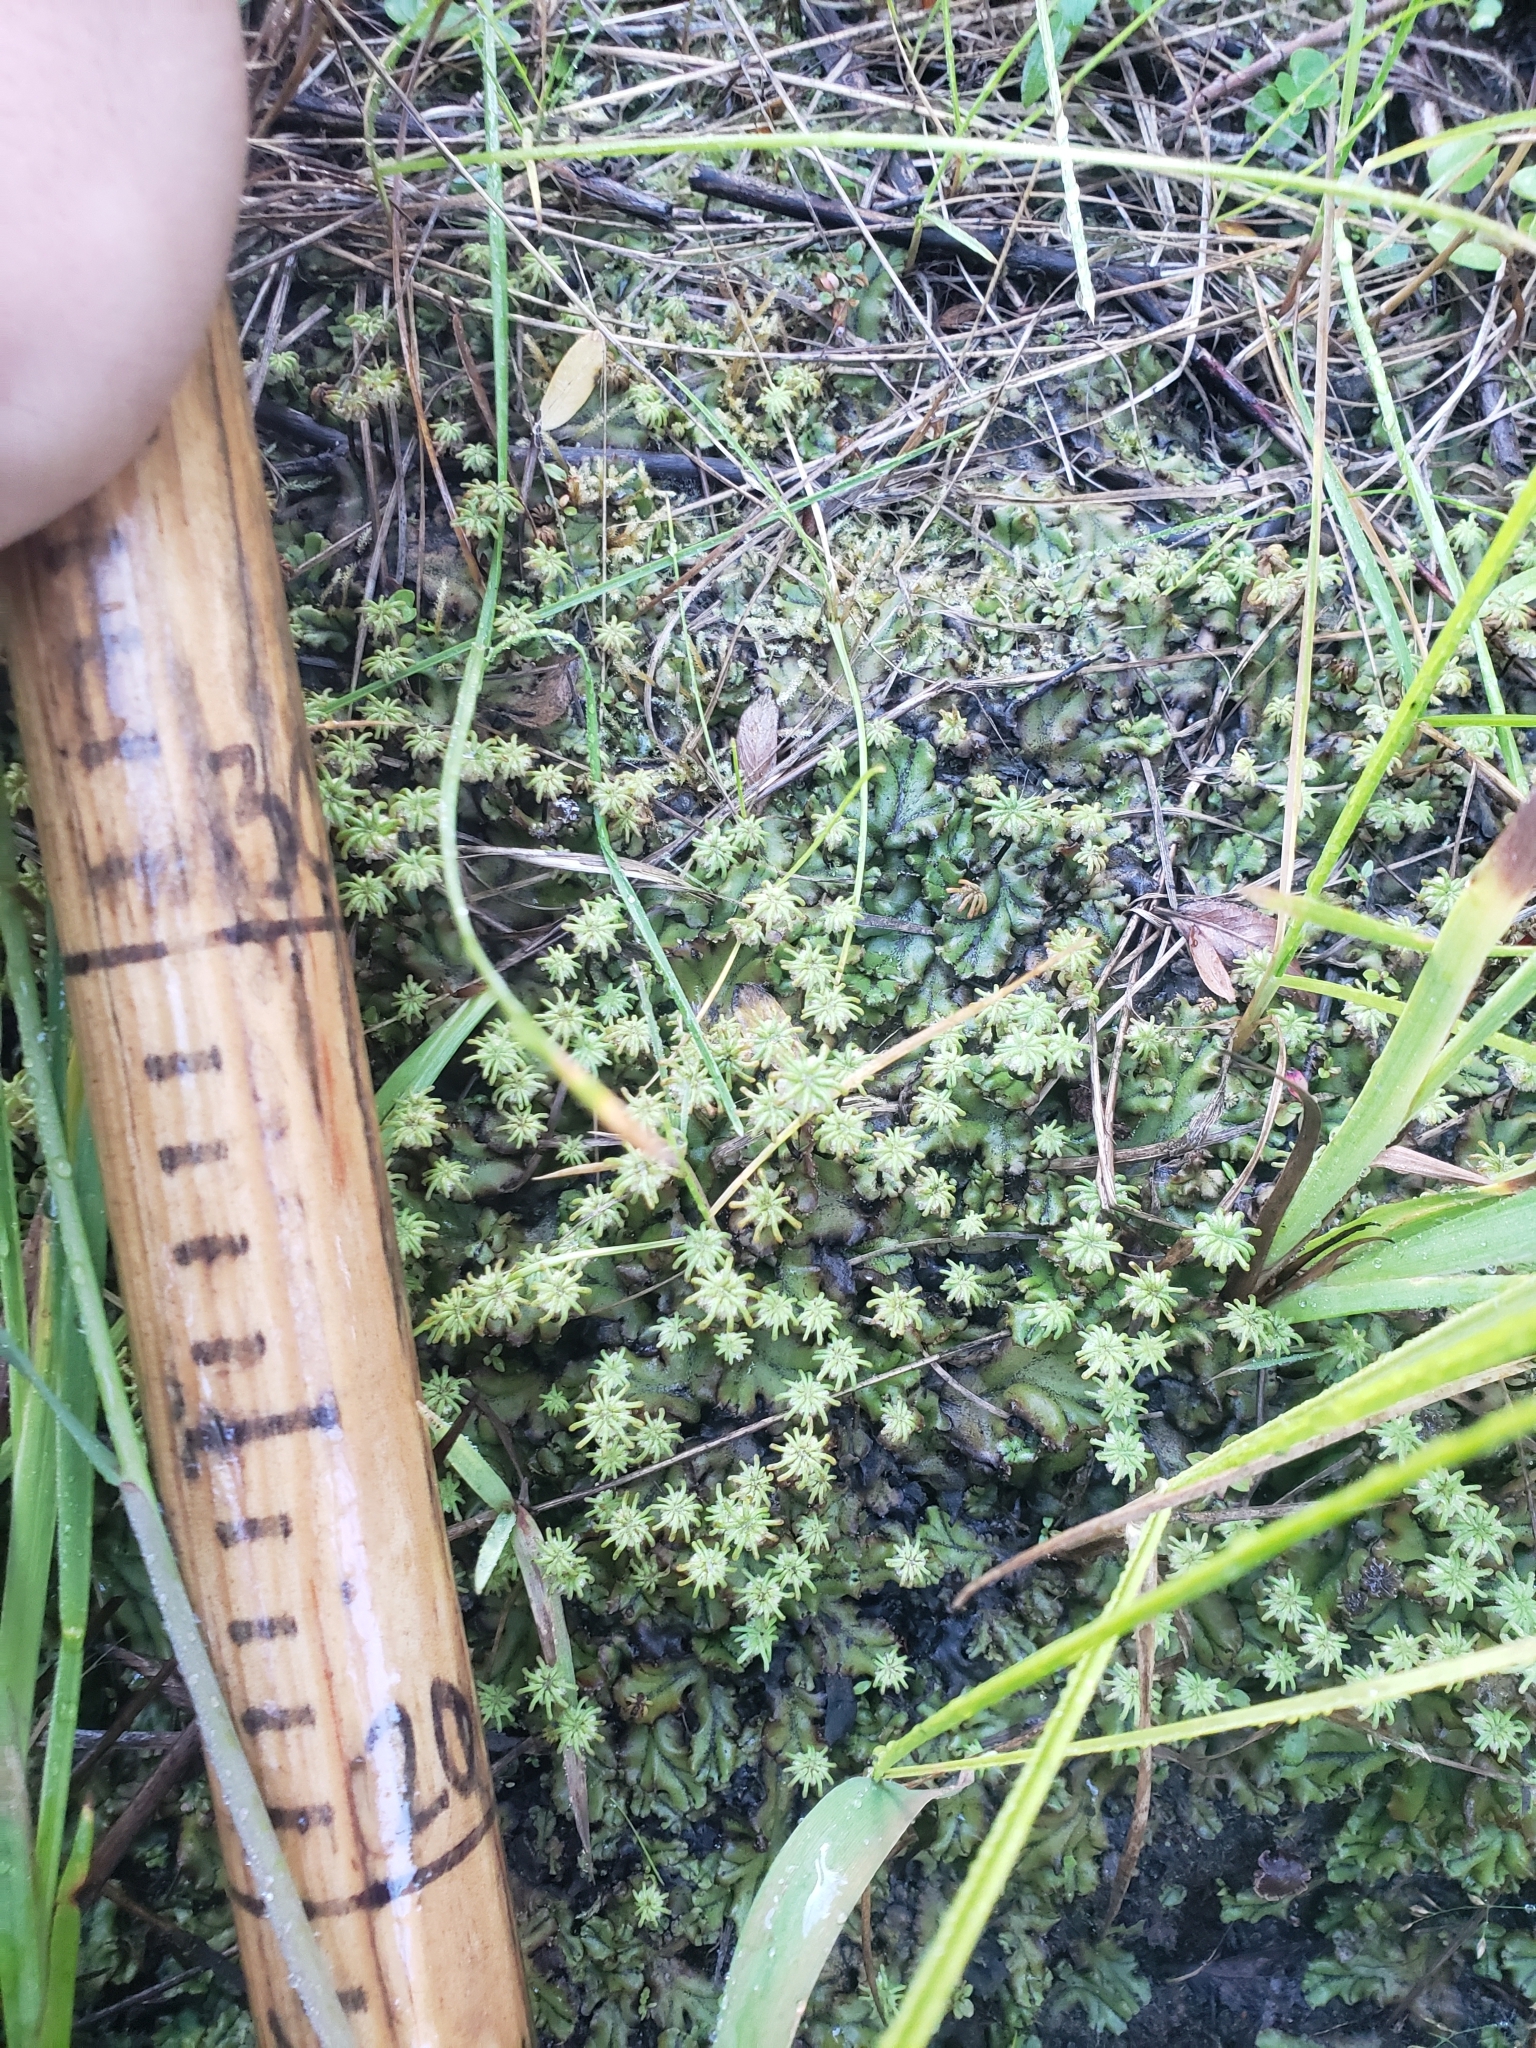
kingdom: Plantae
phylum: Marchantiophyta
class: Marchantiopsida
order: Marchantiales
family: Marchantiaceae
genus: Marchantia
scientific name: Marchantia polymorpha
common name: Common liverwort
